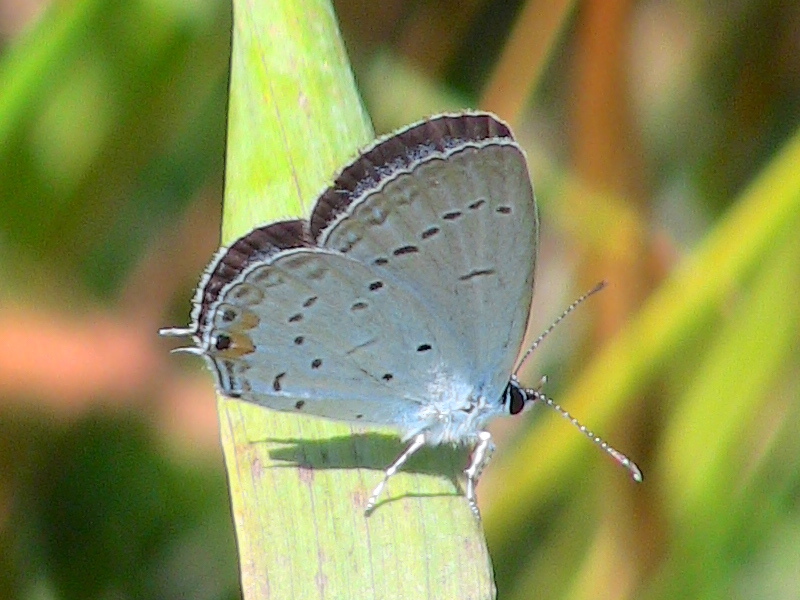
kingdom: Animalia
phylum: Arthropoda
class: Insecta
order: Lepidoptera
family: Lycaenidae
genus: Elkalyce
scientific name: Elkalyce comyntas
